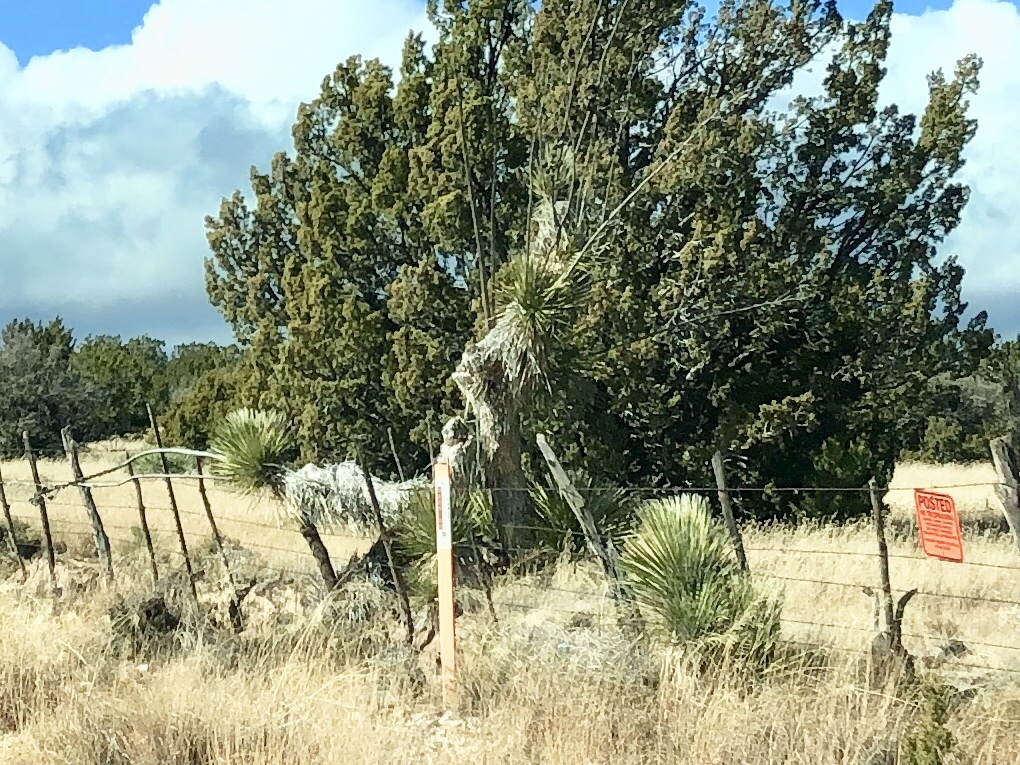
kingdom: Plantae
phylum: Tracheophyta
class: Liliopsida
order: Asparagales
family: Asparagaceae
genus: Yucca
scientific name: Yucca elata
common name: Palmella
